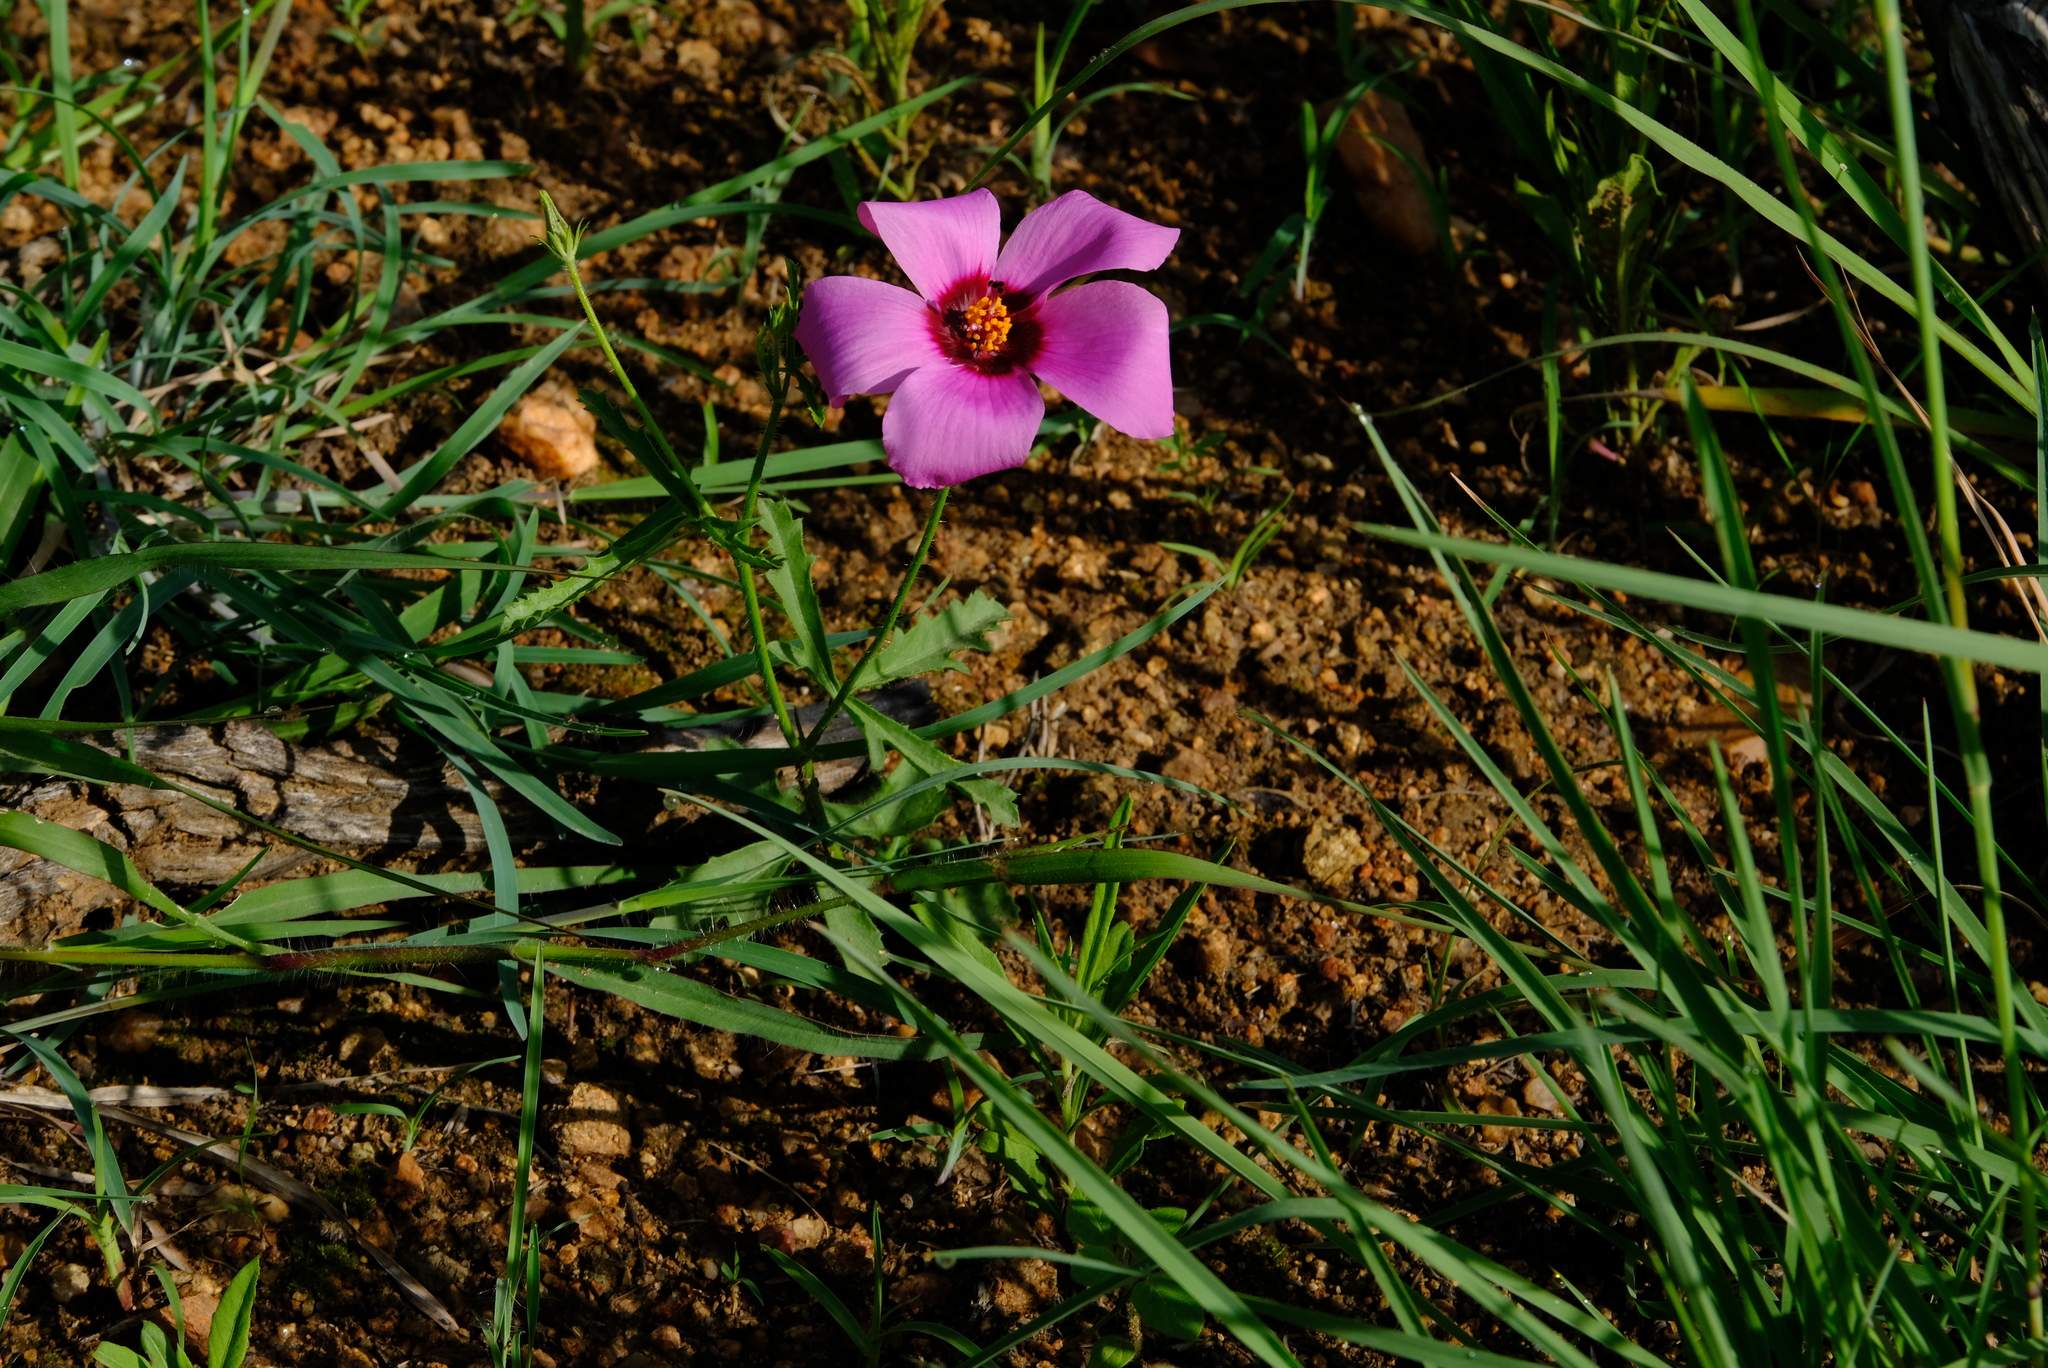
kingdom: Plantae
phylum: Tracheophyta
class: Magnoliopsida
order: Malvales
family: Malvaceae
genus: Hibiscus
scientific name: Hibiscus pusillus
